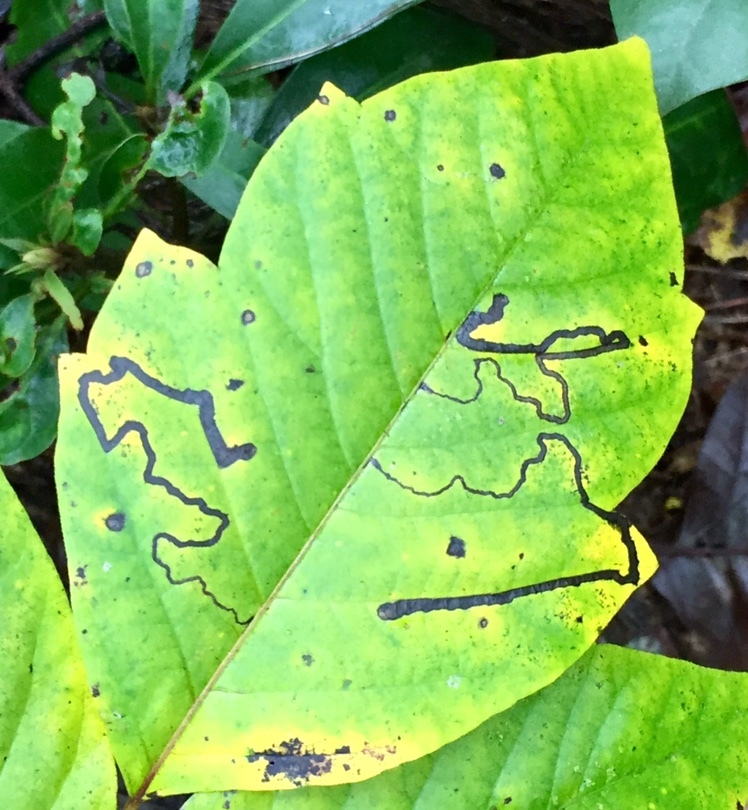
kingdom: Animalia
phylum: Arthropoda
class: Insecta
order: Lepidoptera
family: Nepticulidae
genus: Stigmella
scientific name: Stigmella rhoifoliella
